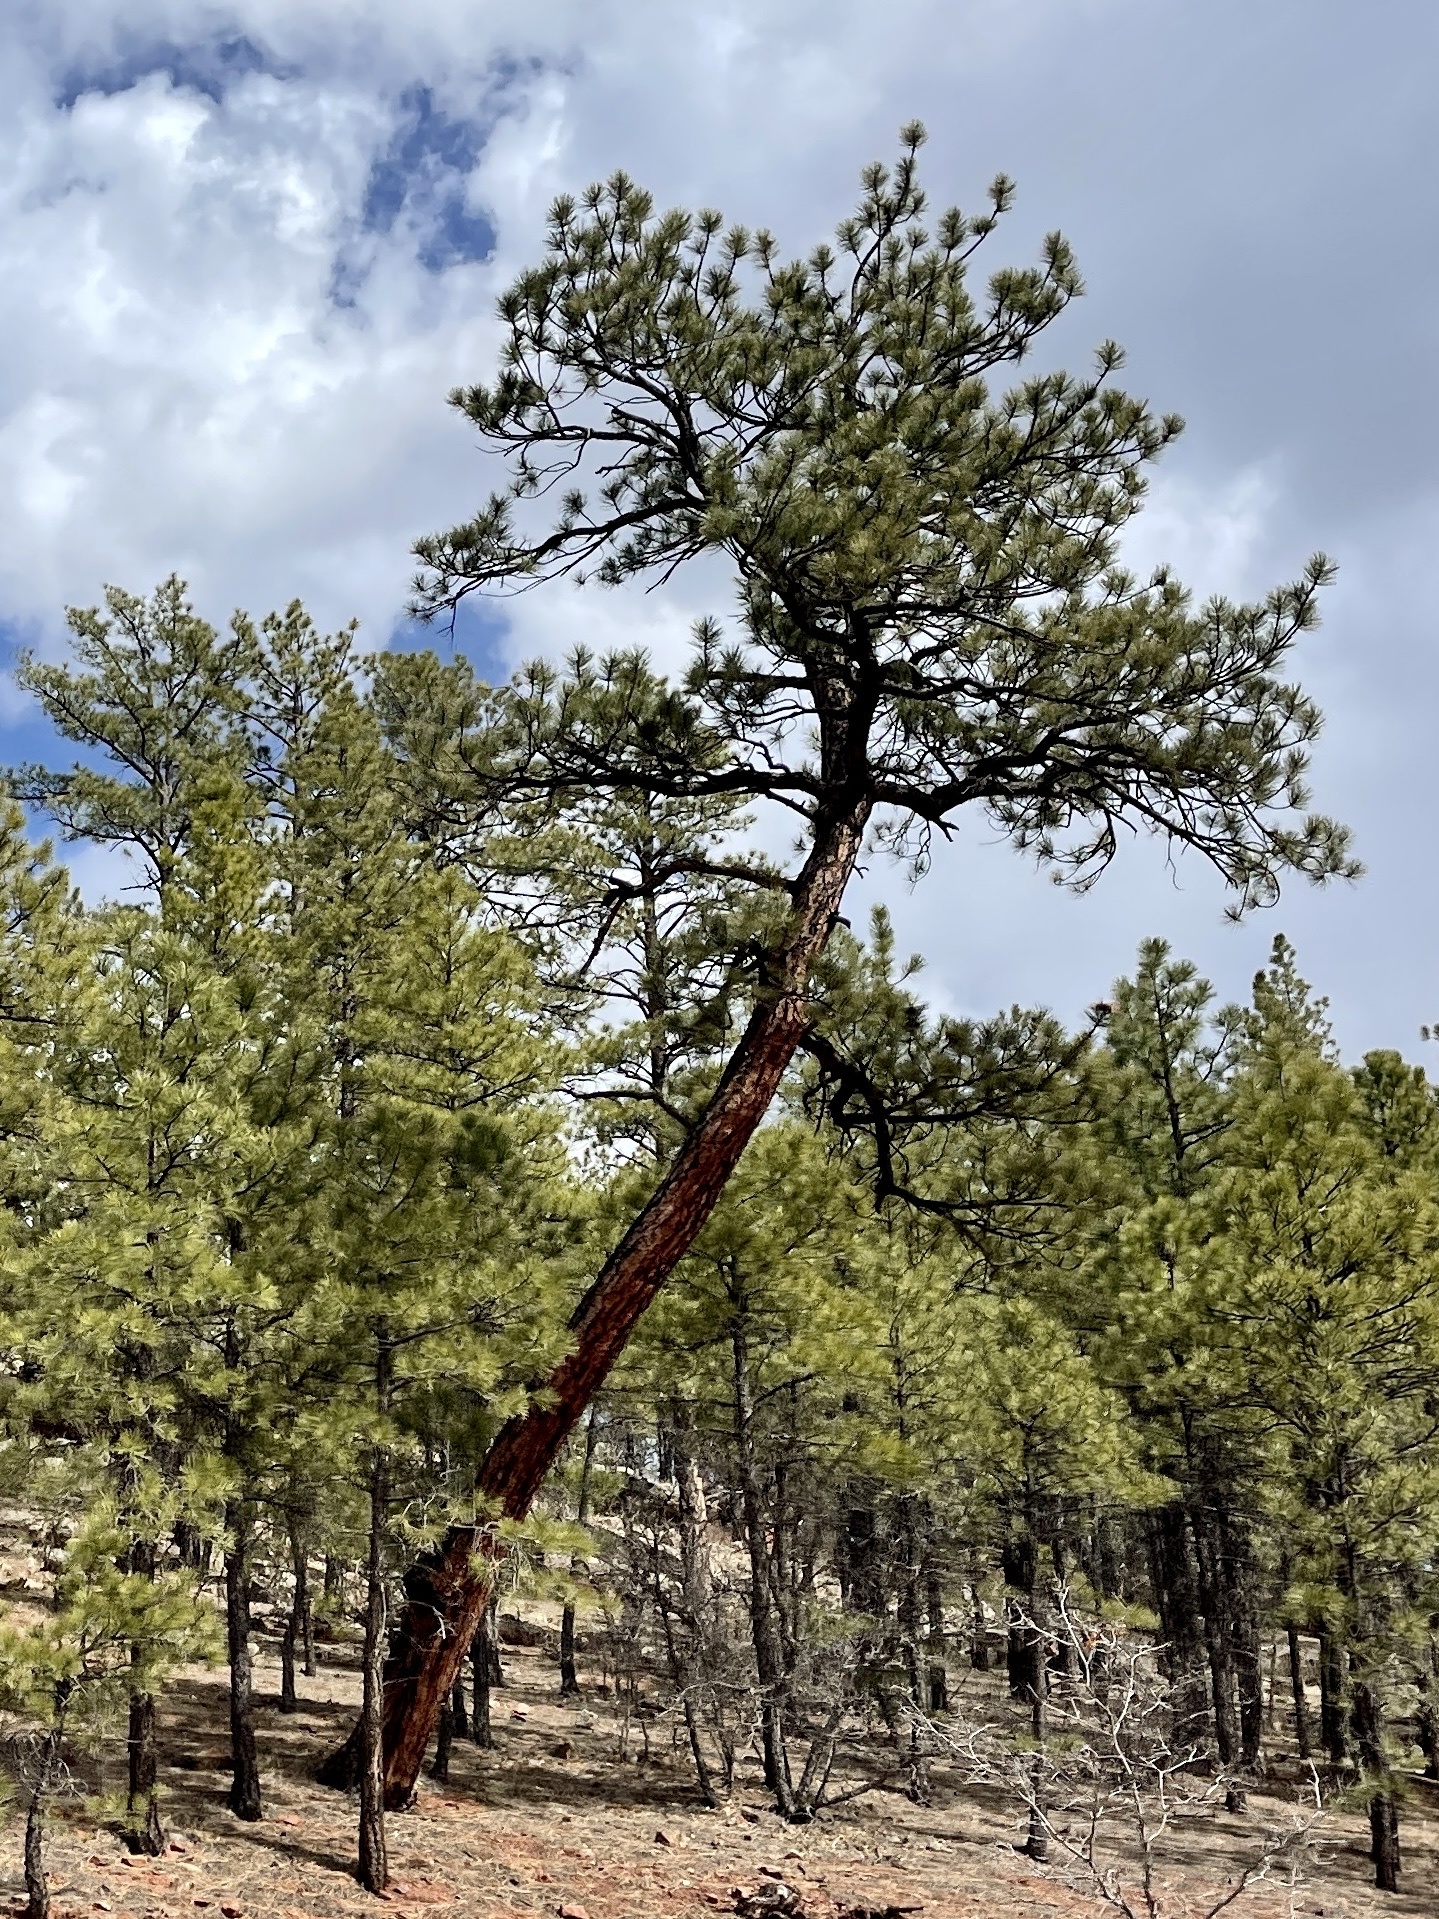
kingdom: Plantae
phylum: Tracheophyta
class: Pinopsida
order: Pinales
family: Pinaceae
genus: Pinus
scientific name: Pinus ponderosa
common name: Western yellow-pine
